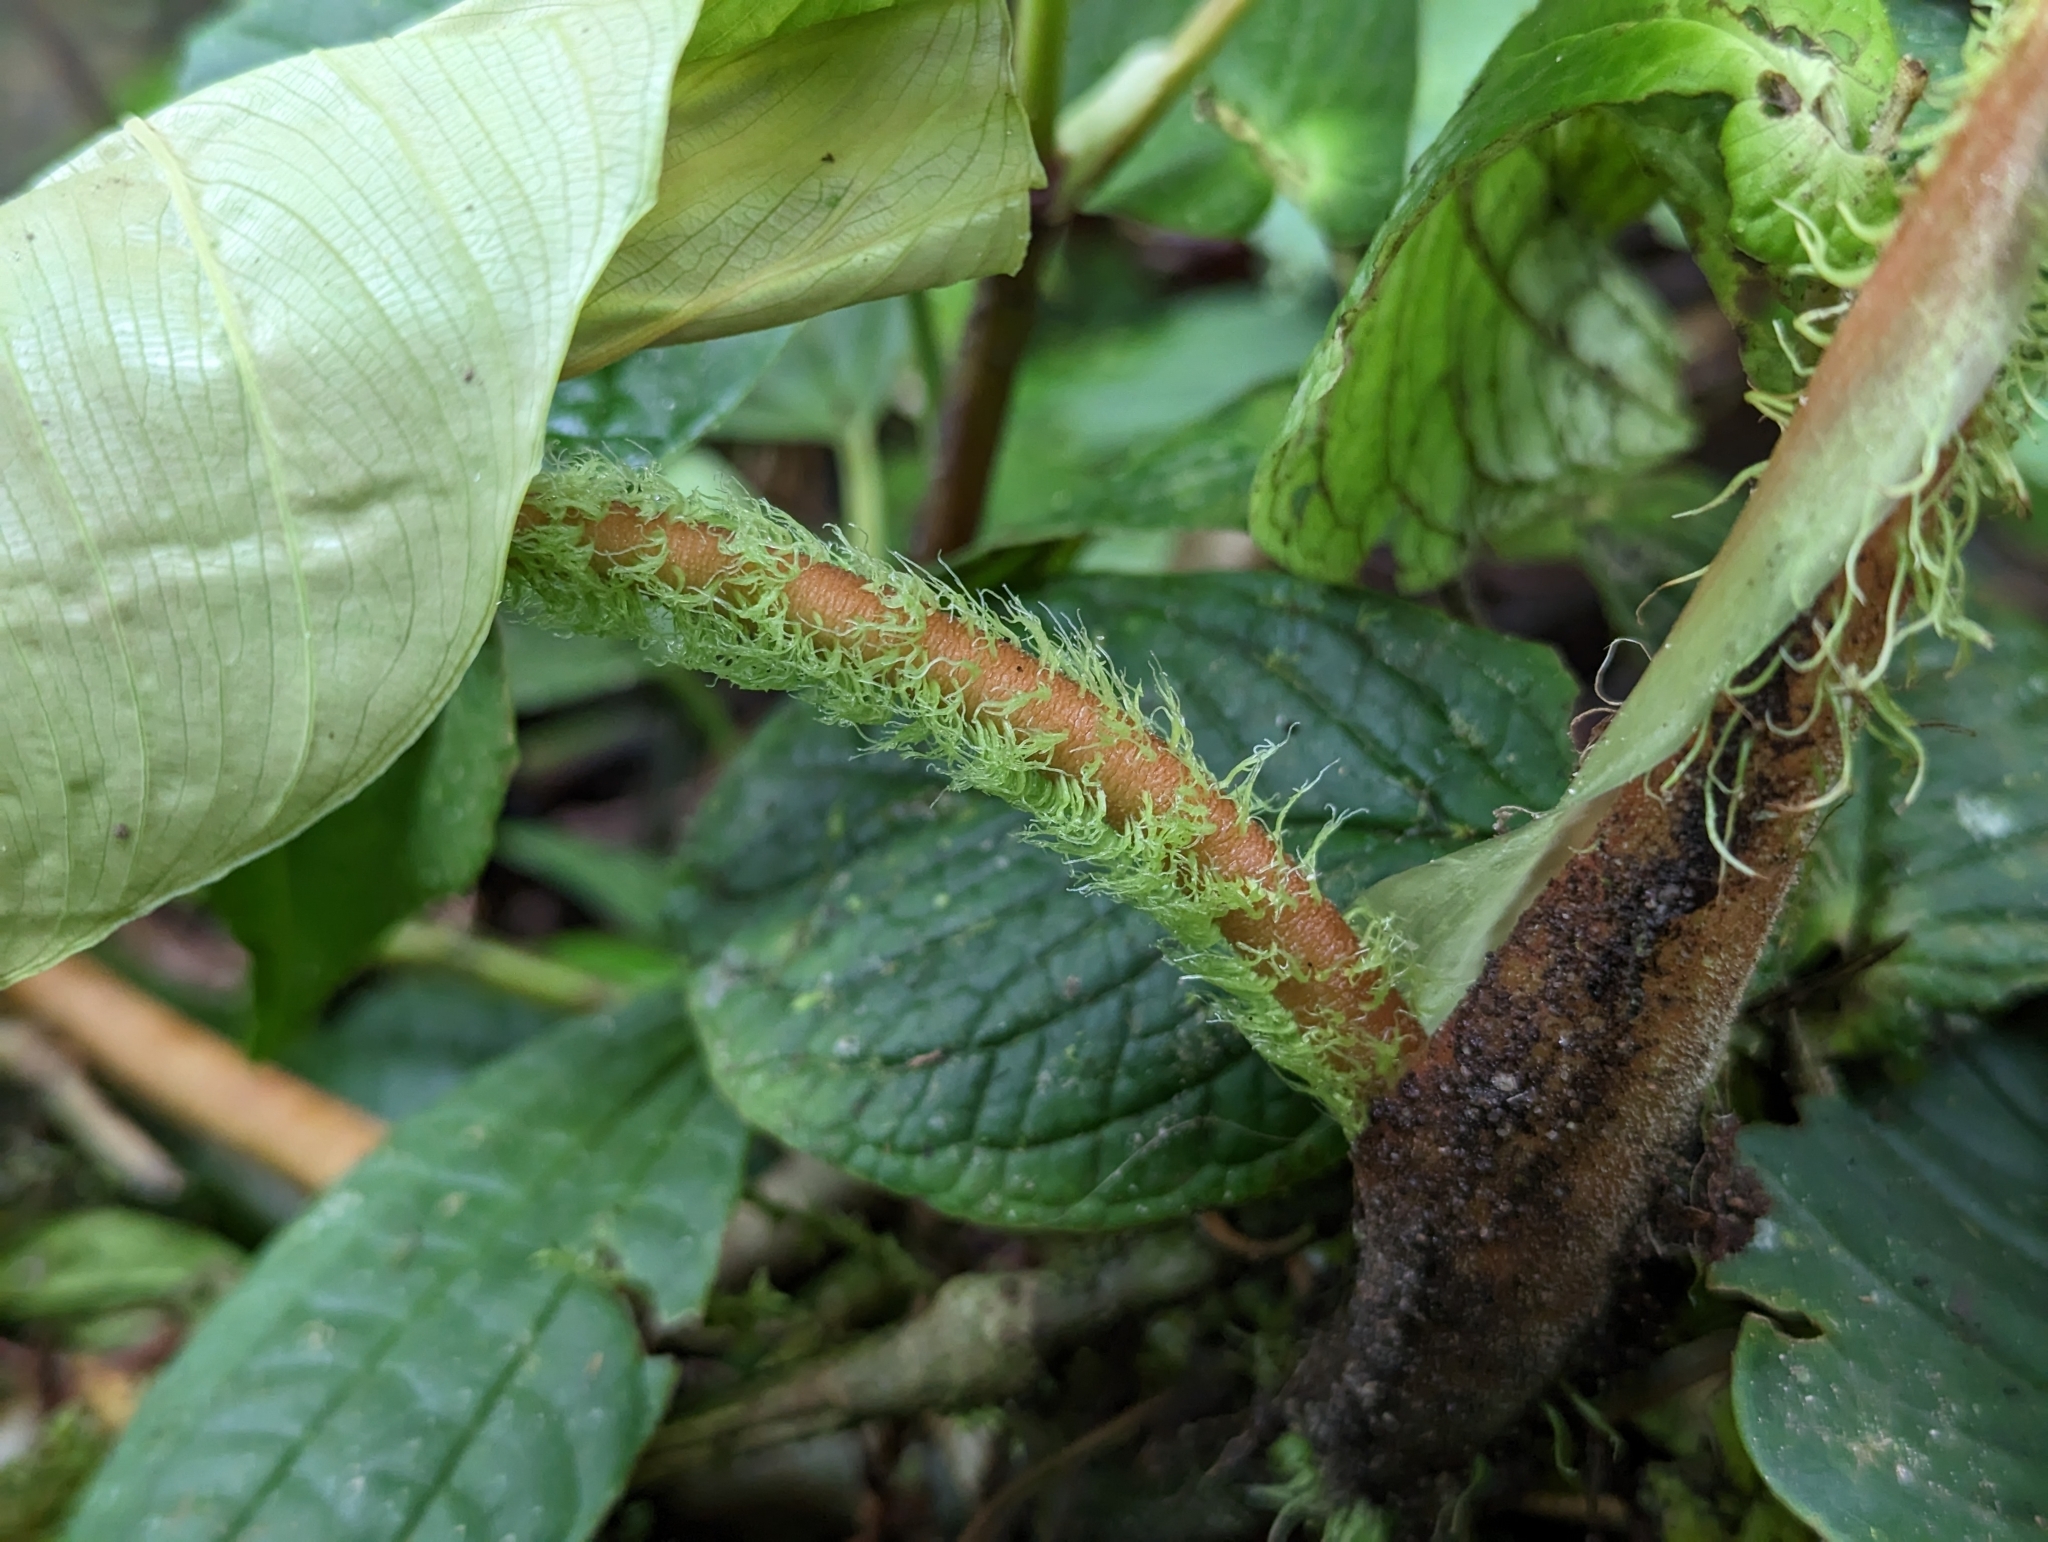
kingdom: Plantae
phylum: Tracheophyta
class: Liliopsida
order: Alismatales
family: Araceae
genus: Philodendron
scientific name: Philodendron fibrosum
